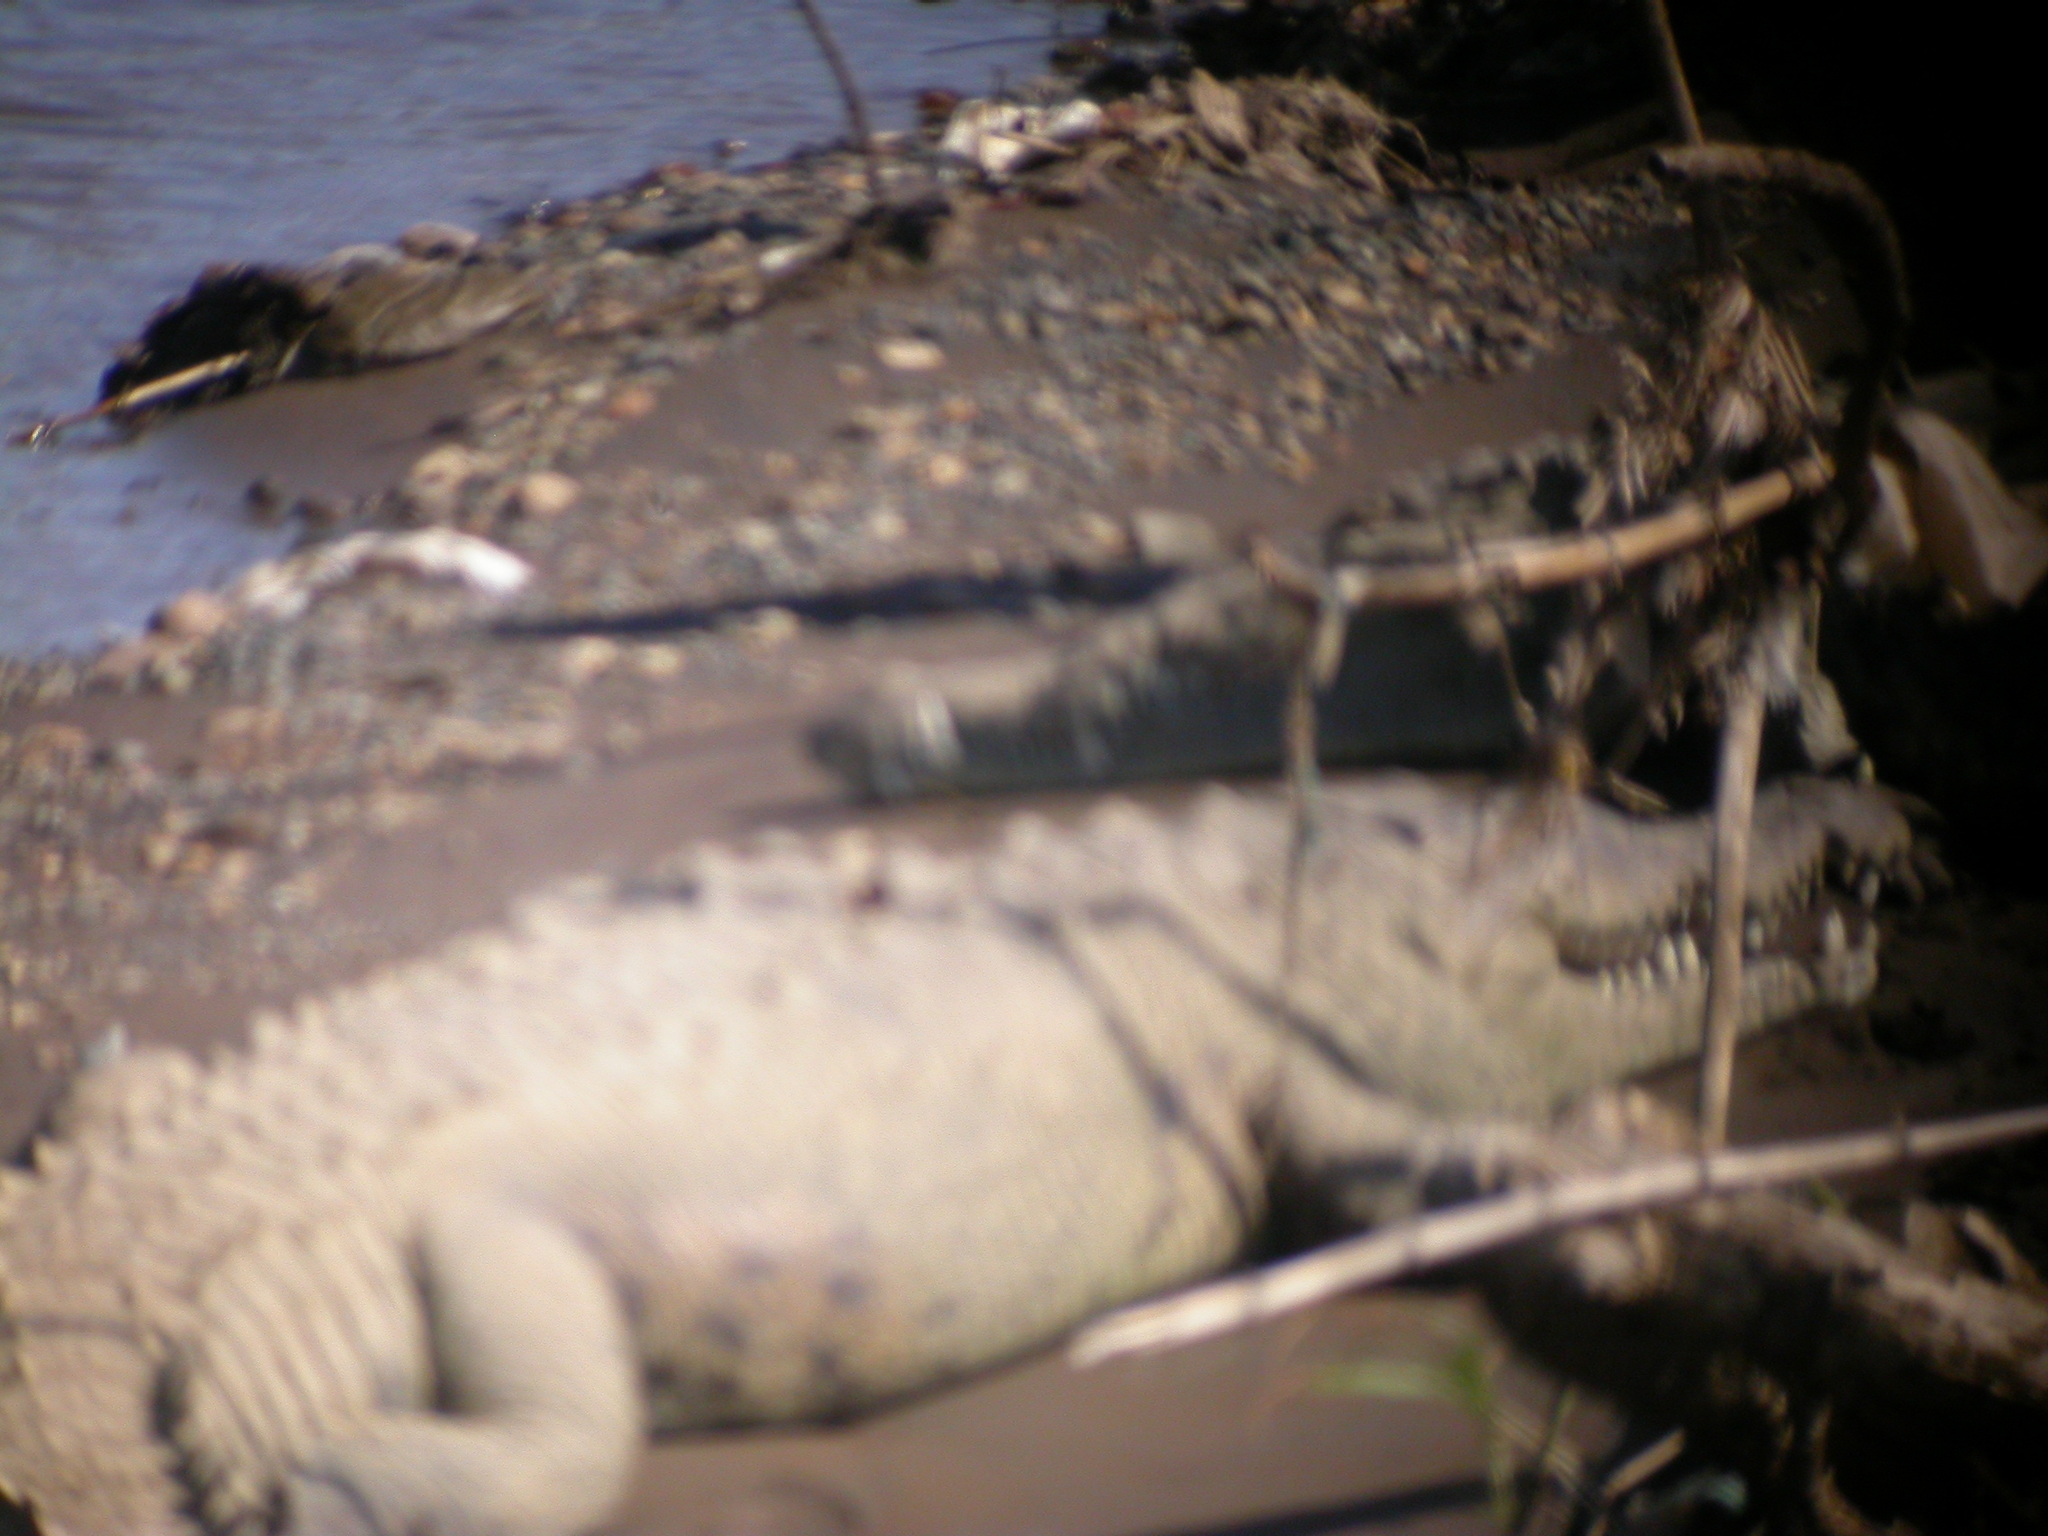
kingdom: Animalia
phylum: Chordata
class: Crocodylia
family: Crocodylidae
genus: Crocodylus
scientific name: Crocodylus acutus
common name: American crocodile
